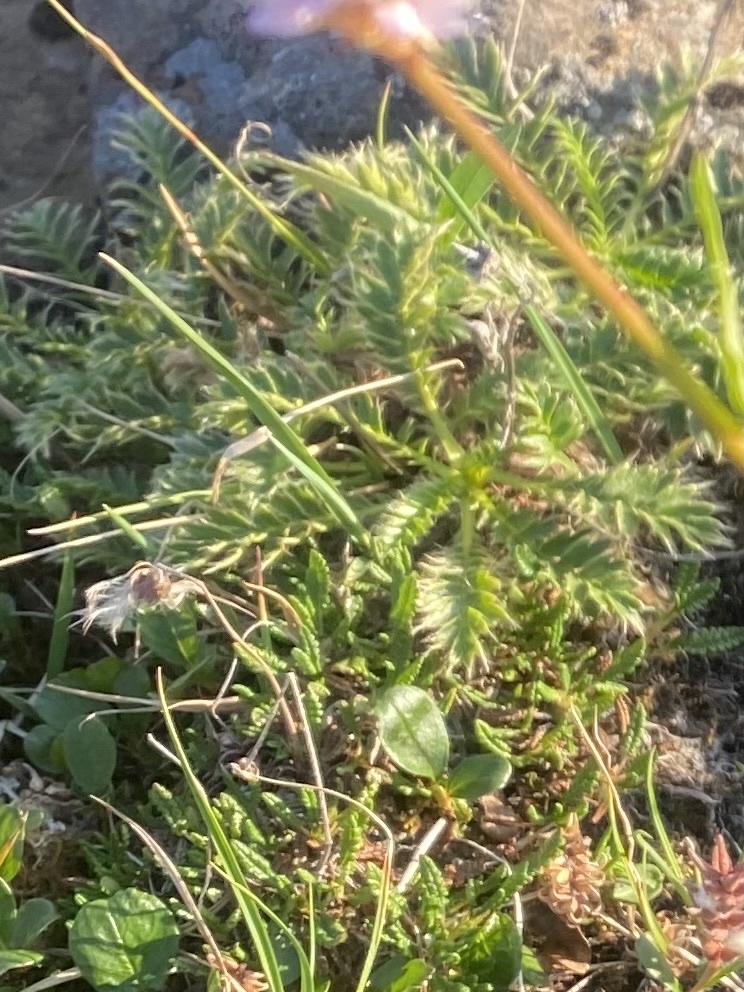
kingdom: Plantae
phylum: Tracheophyta
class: Magnoliopsida
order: Rosales
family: Rosaceae
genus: Geum
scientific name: Geum glaciale
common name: Glacier avens
